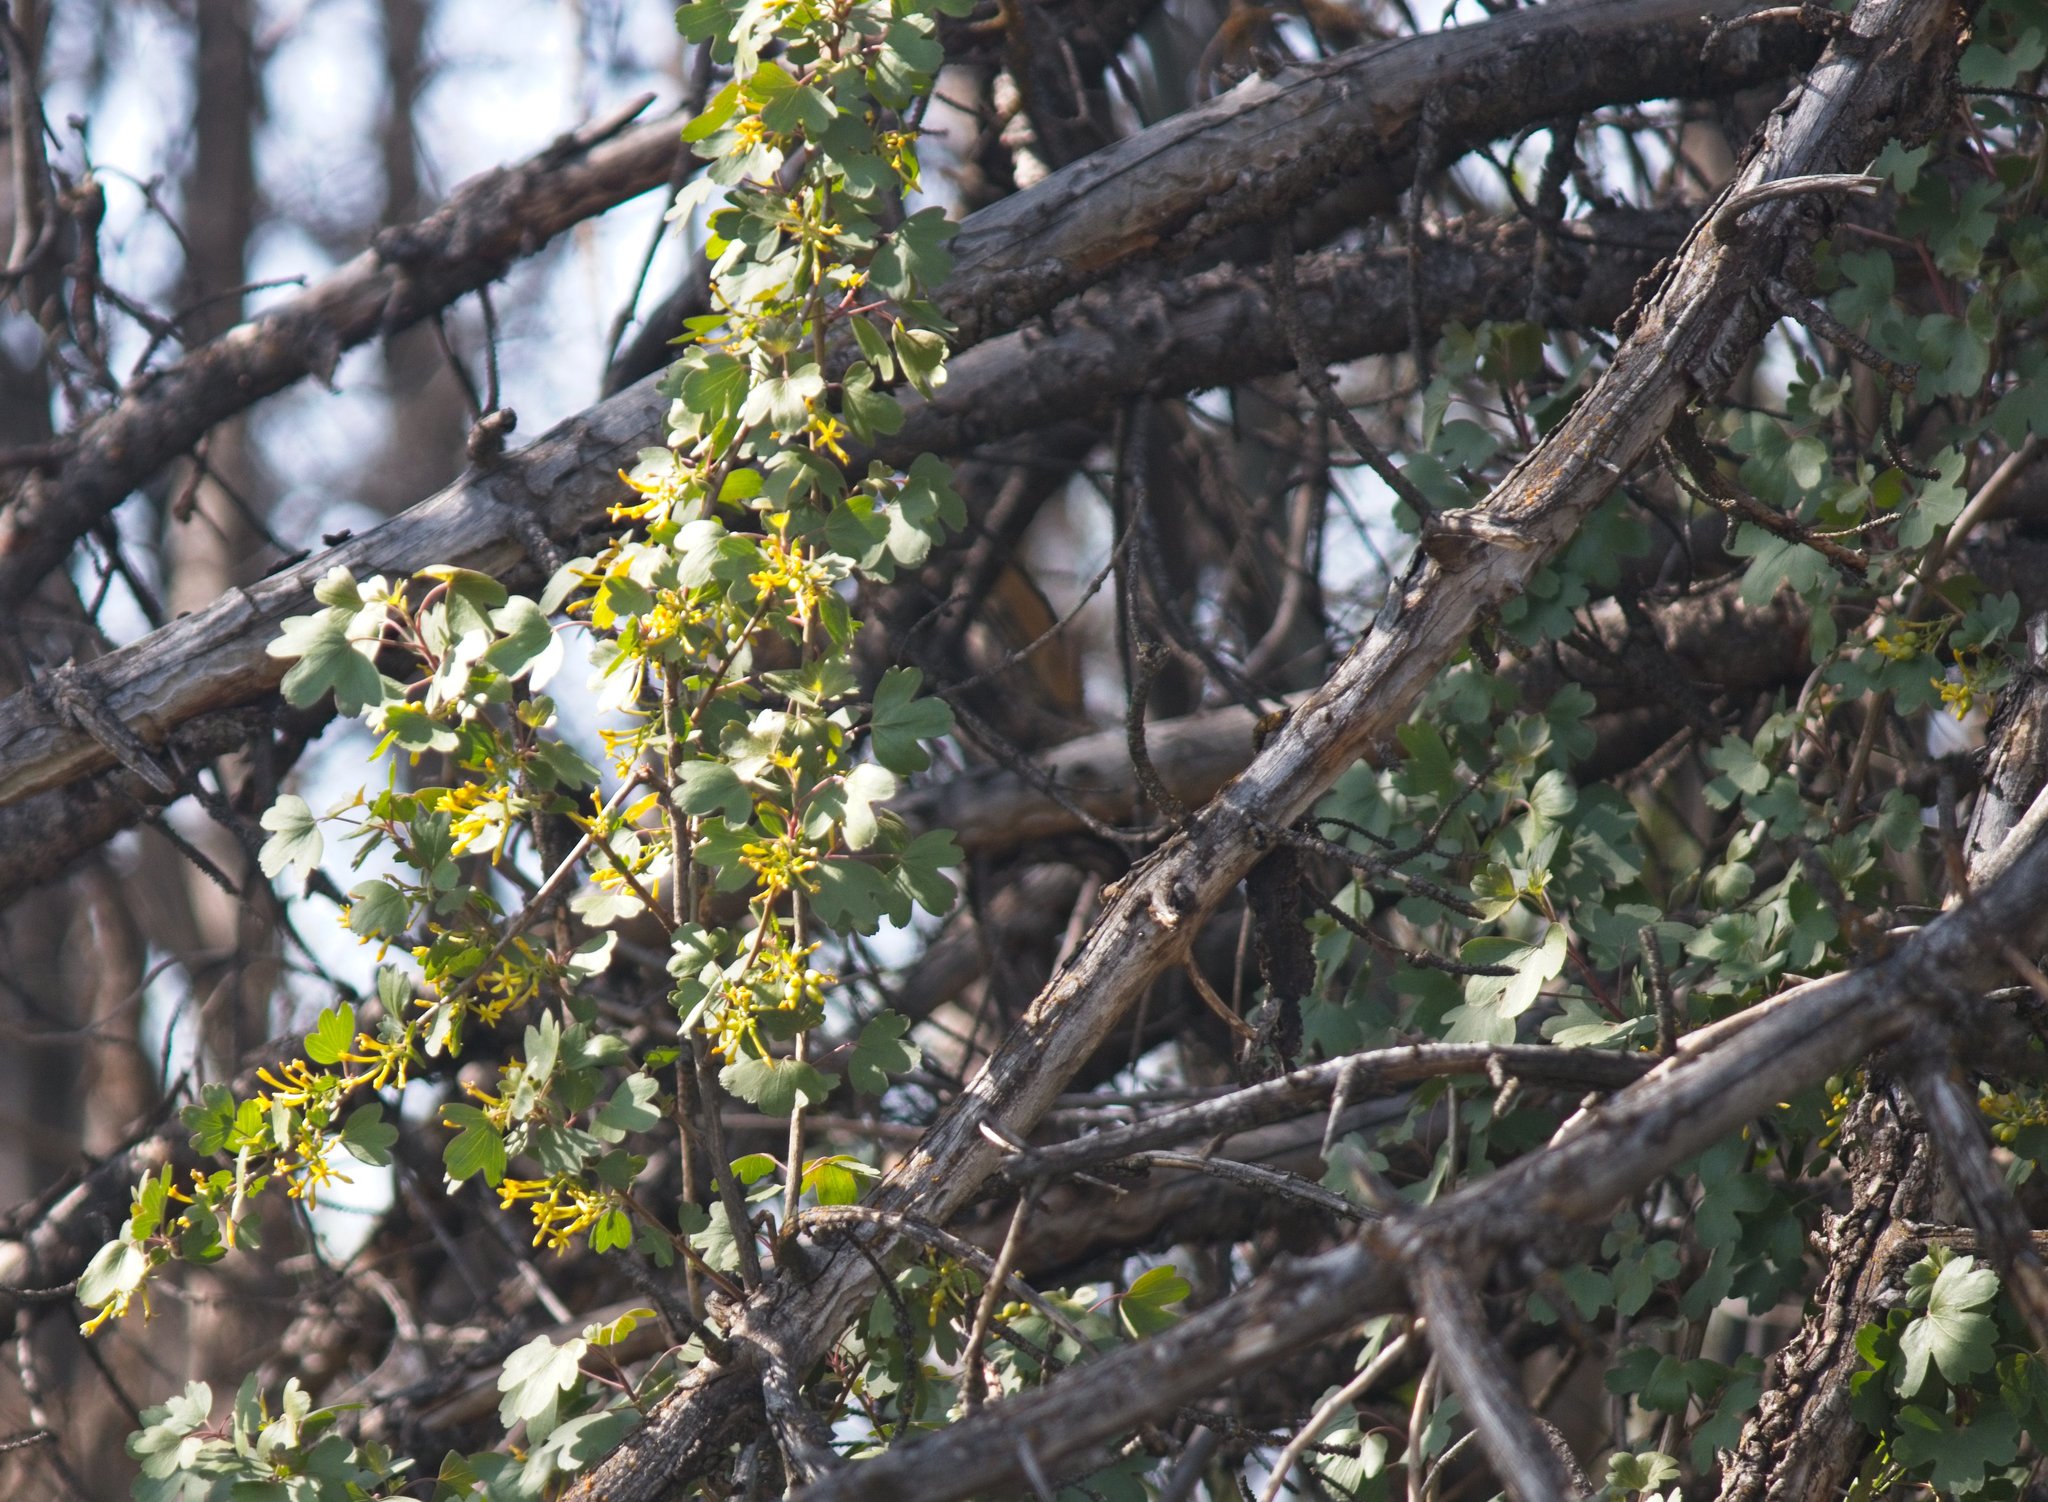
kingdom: Plantae
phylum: Tracheophyta
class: Magnoliopsida
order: Saxifragales
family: Grossulariaceae
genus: Ribes
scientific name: Ribes aureum
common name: Golden currant
